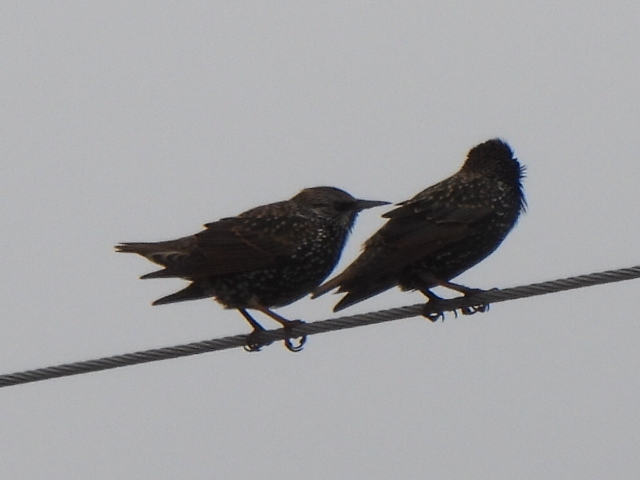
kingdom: Animalia
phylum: Chordata
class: Aves
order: Passeriformes
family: Sturnidae
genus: Sturnus
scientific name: Sturnus vulgaris
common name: Common starling
